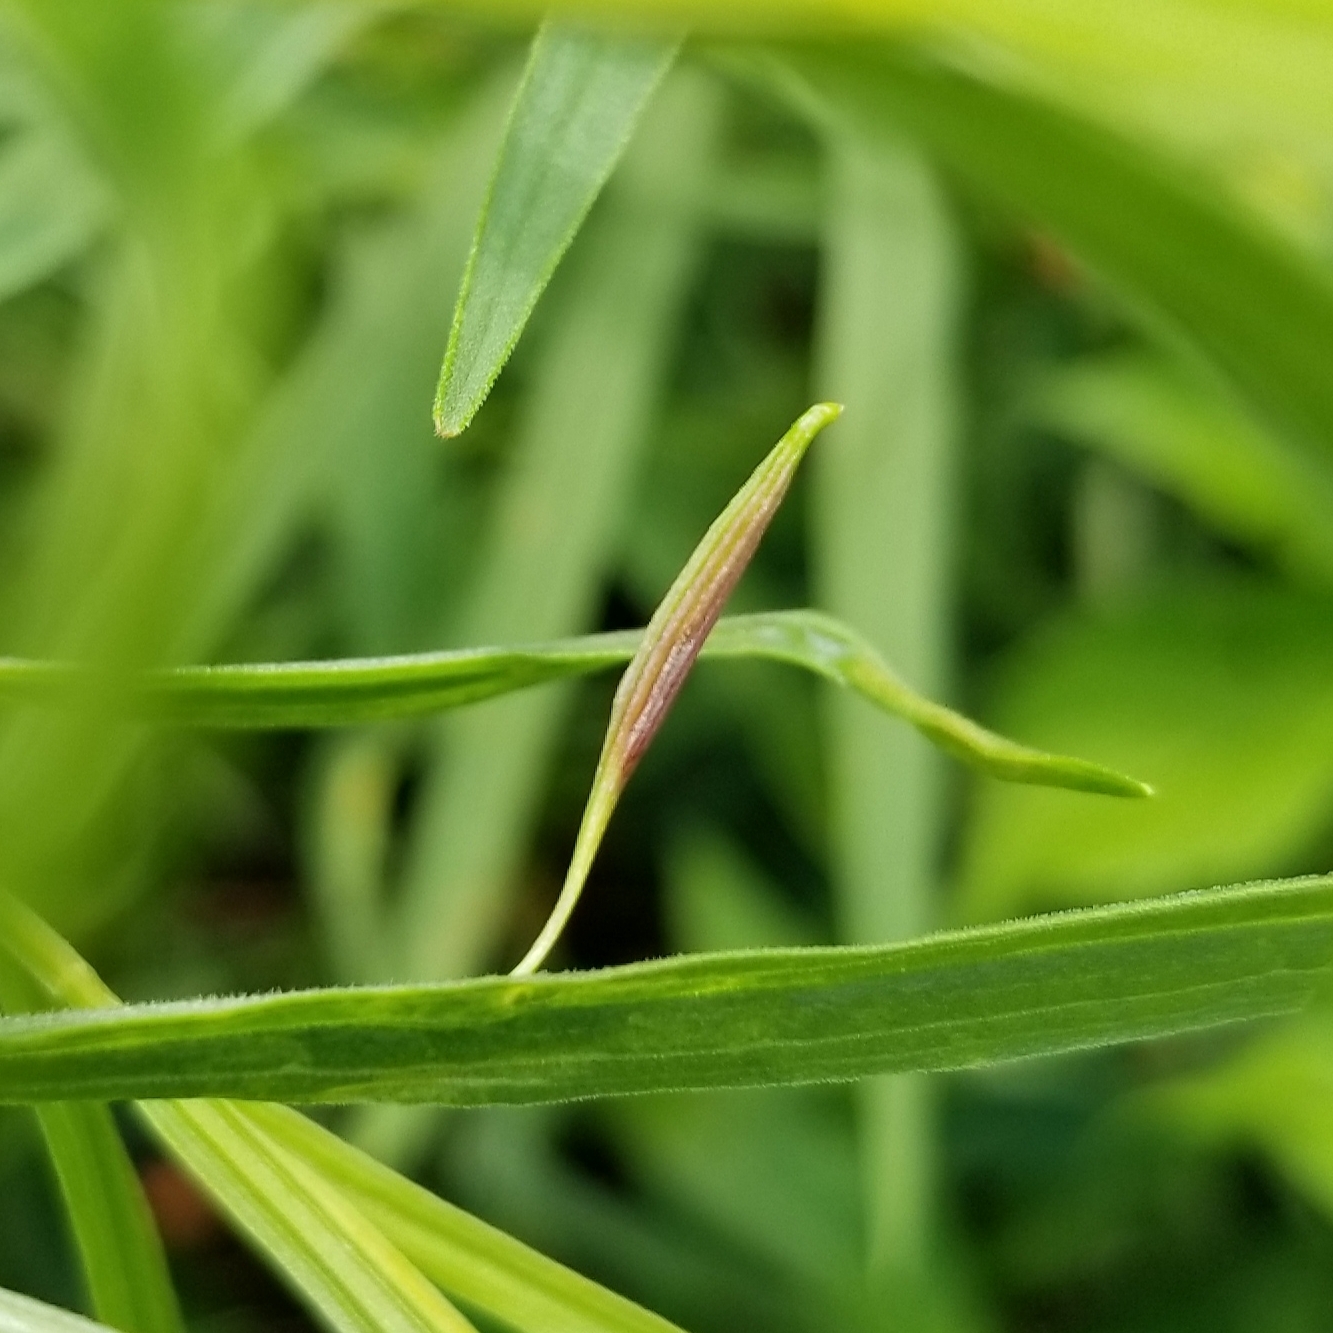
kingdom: Animalia
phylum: Arthropoda
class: Insecta
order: Diptera
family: Cecidomyiidae
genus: Rhopalomyia
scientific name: Rhopalomyia pedicellata
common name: Goldentop pedicellate gall midge
